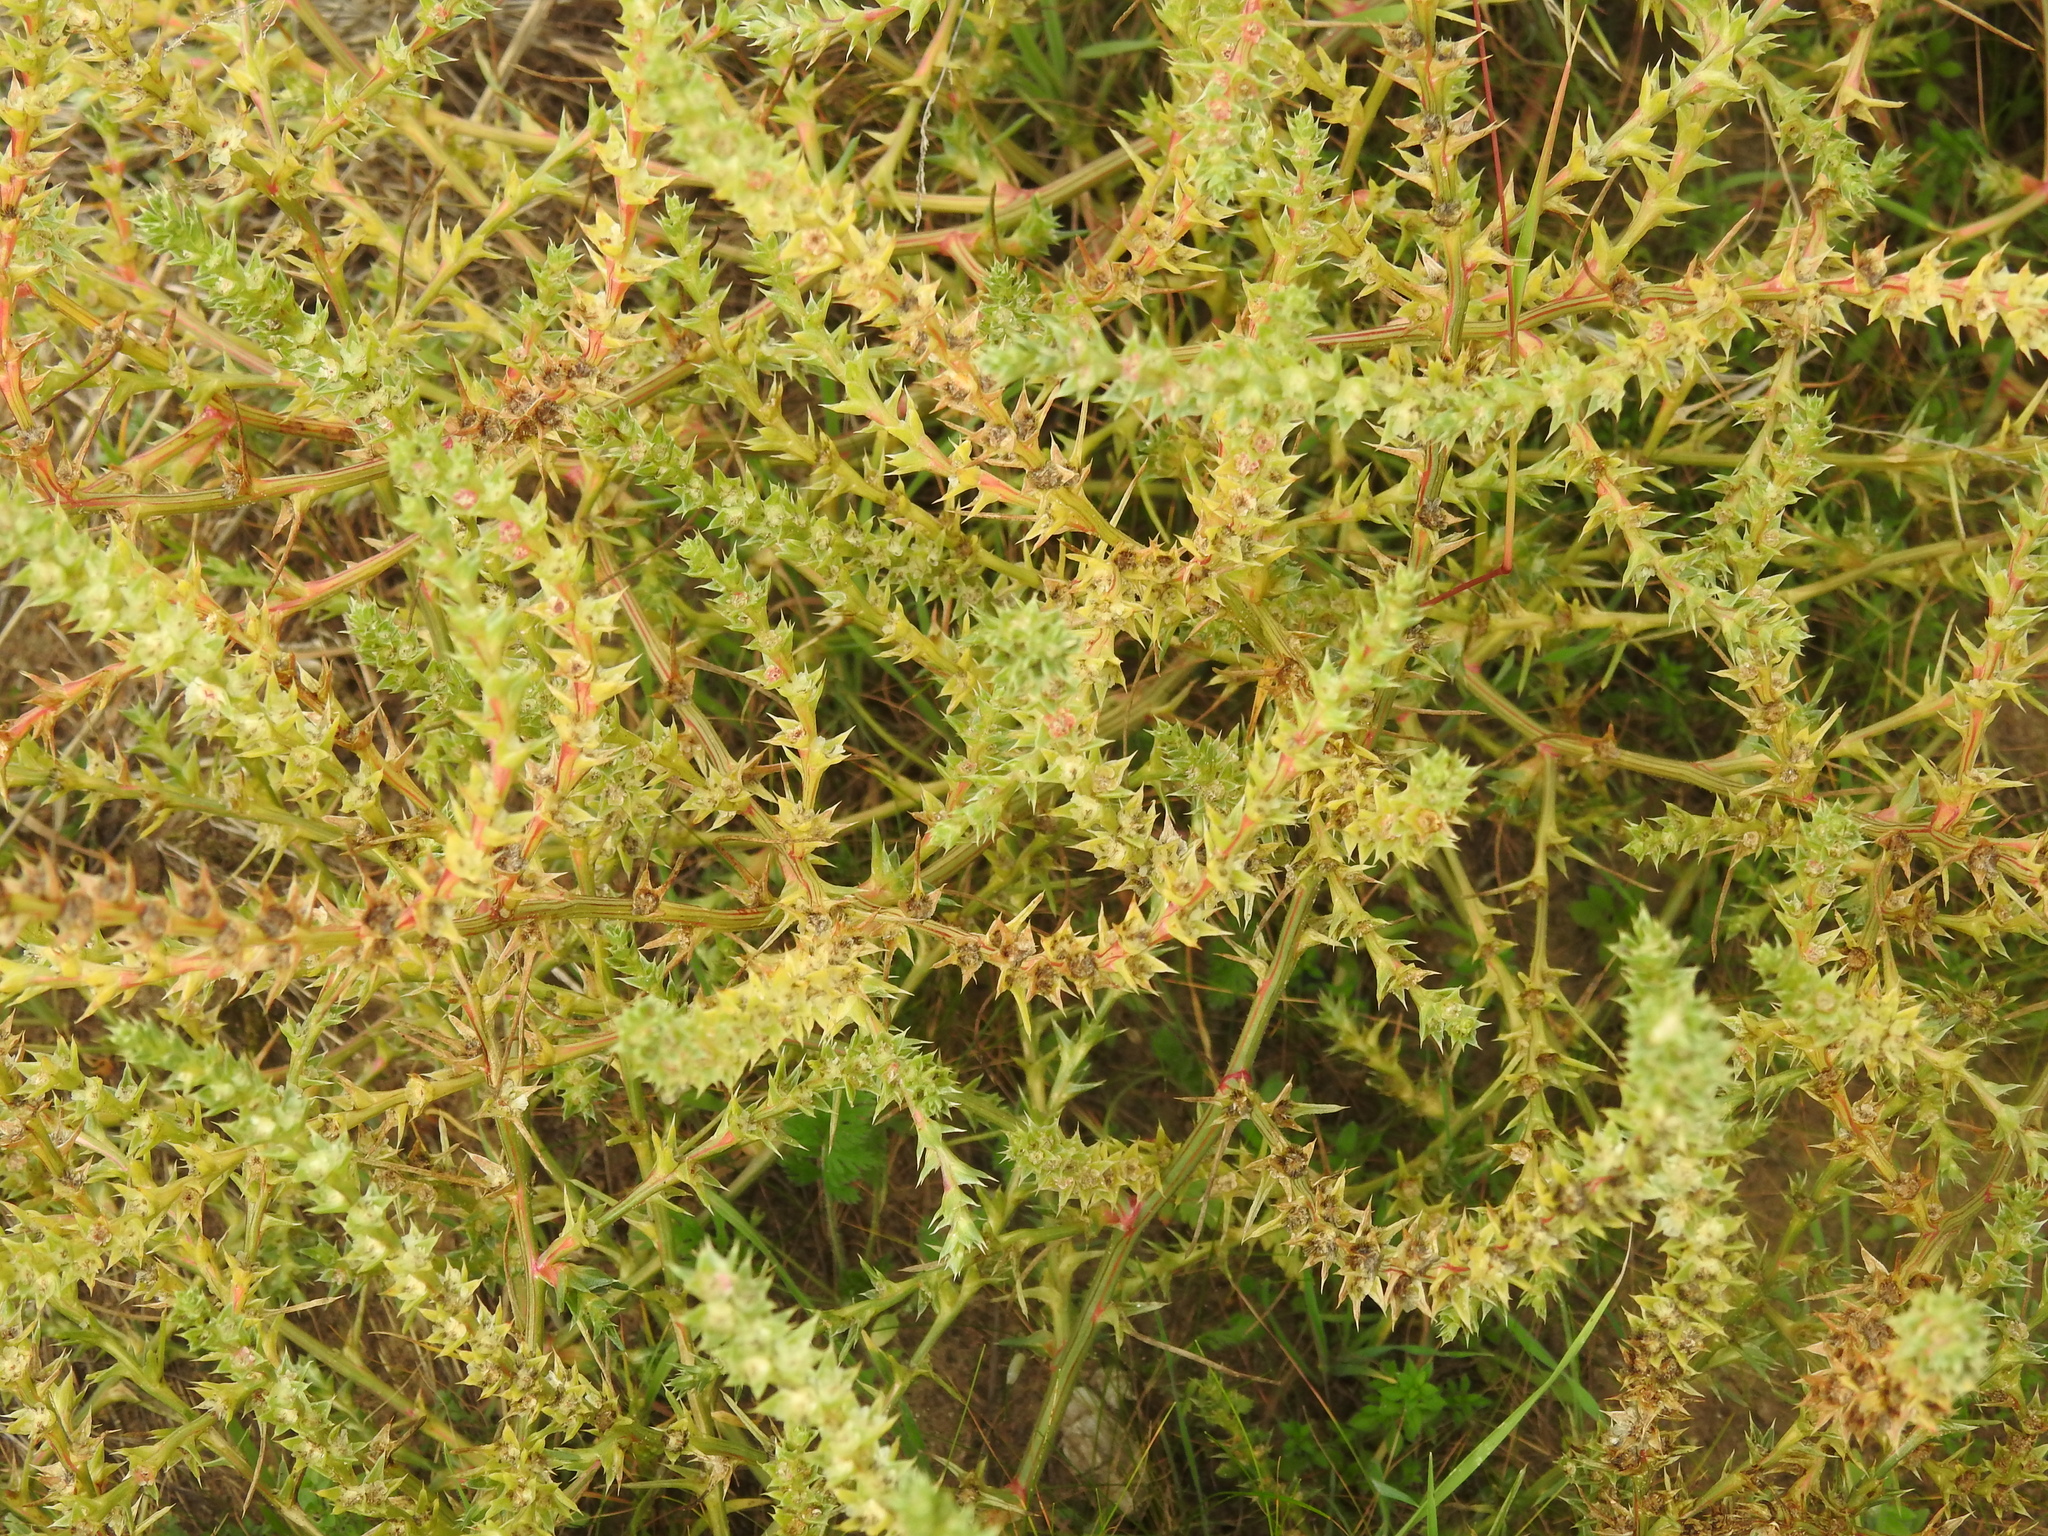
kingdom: Plantae
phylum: Tracheophyta
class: Magnoliopsida
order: Caryophyllales
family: Amaranthaceae
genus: Salsola
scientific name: Salsola kali
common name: Saltwort
